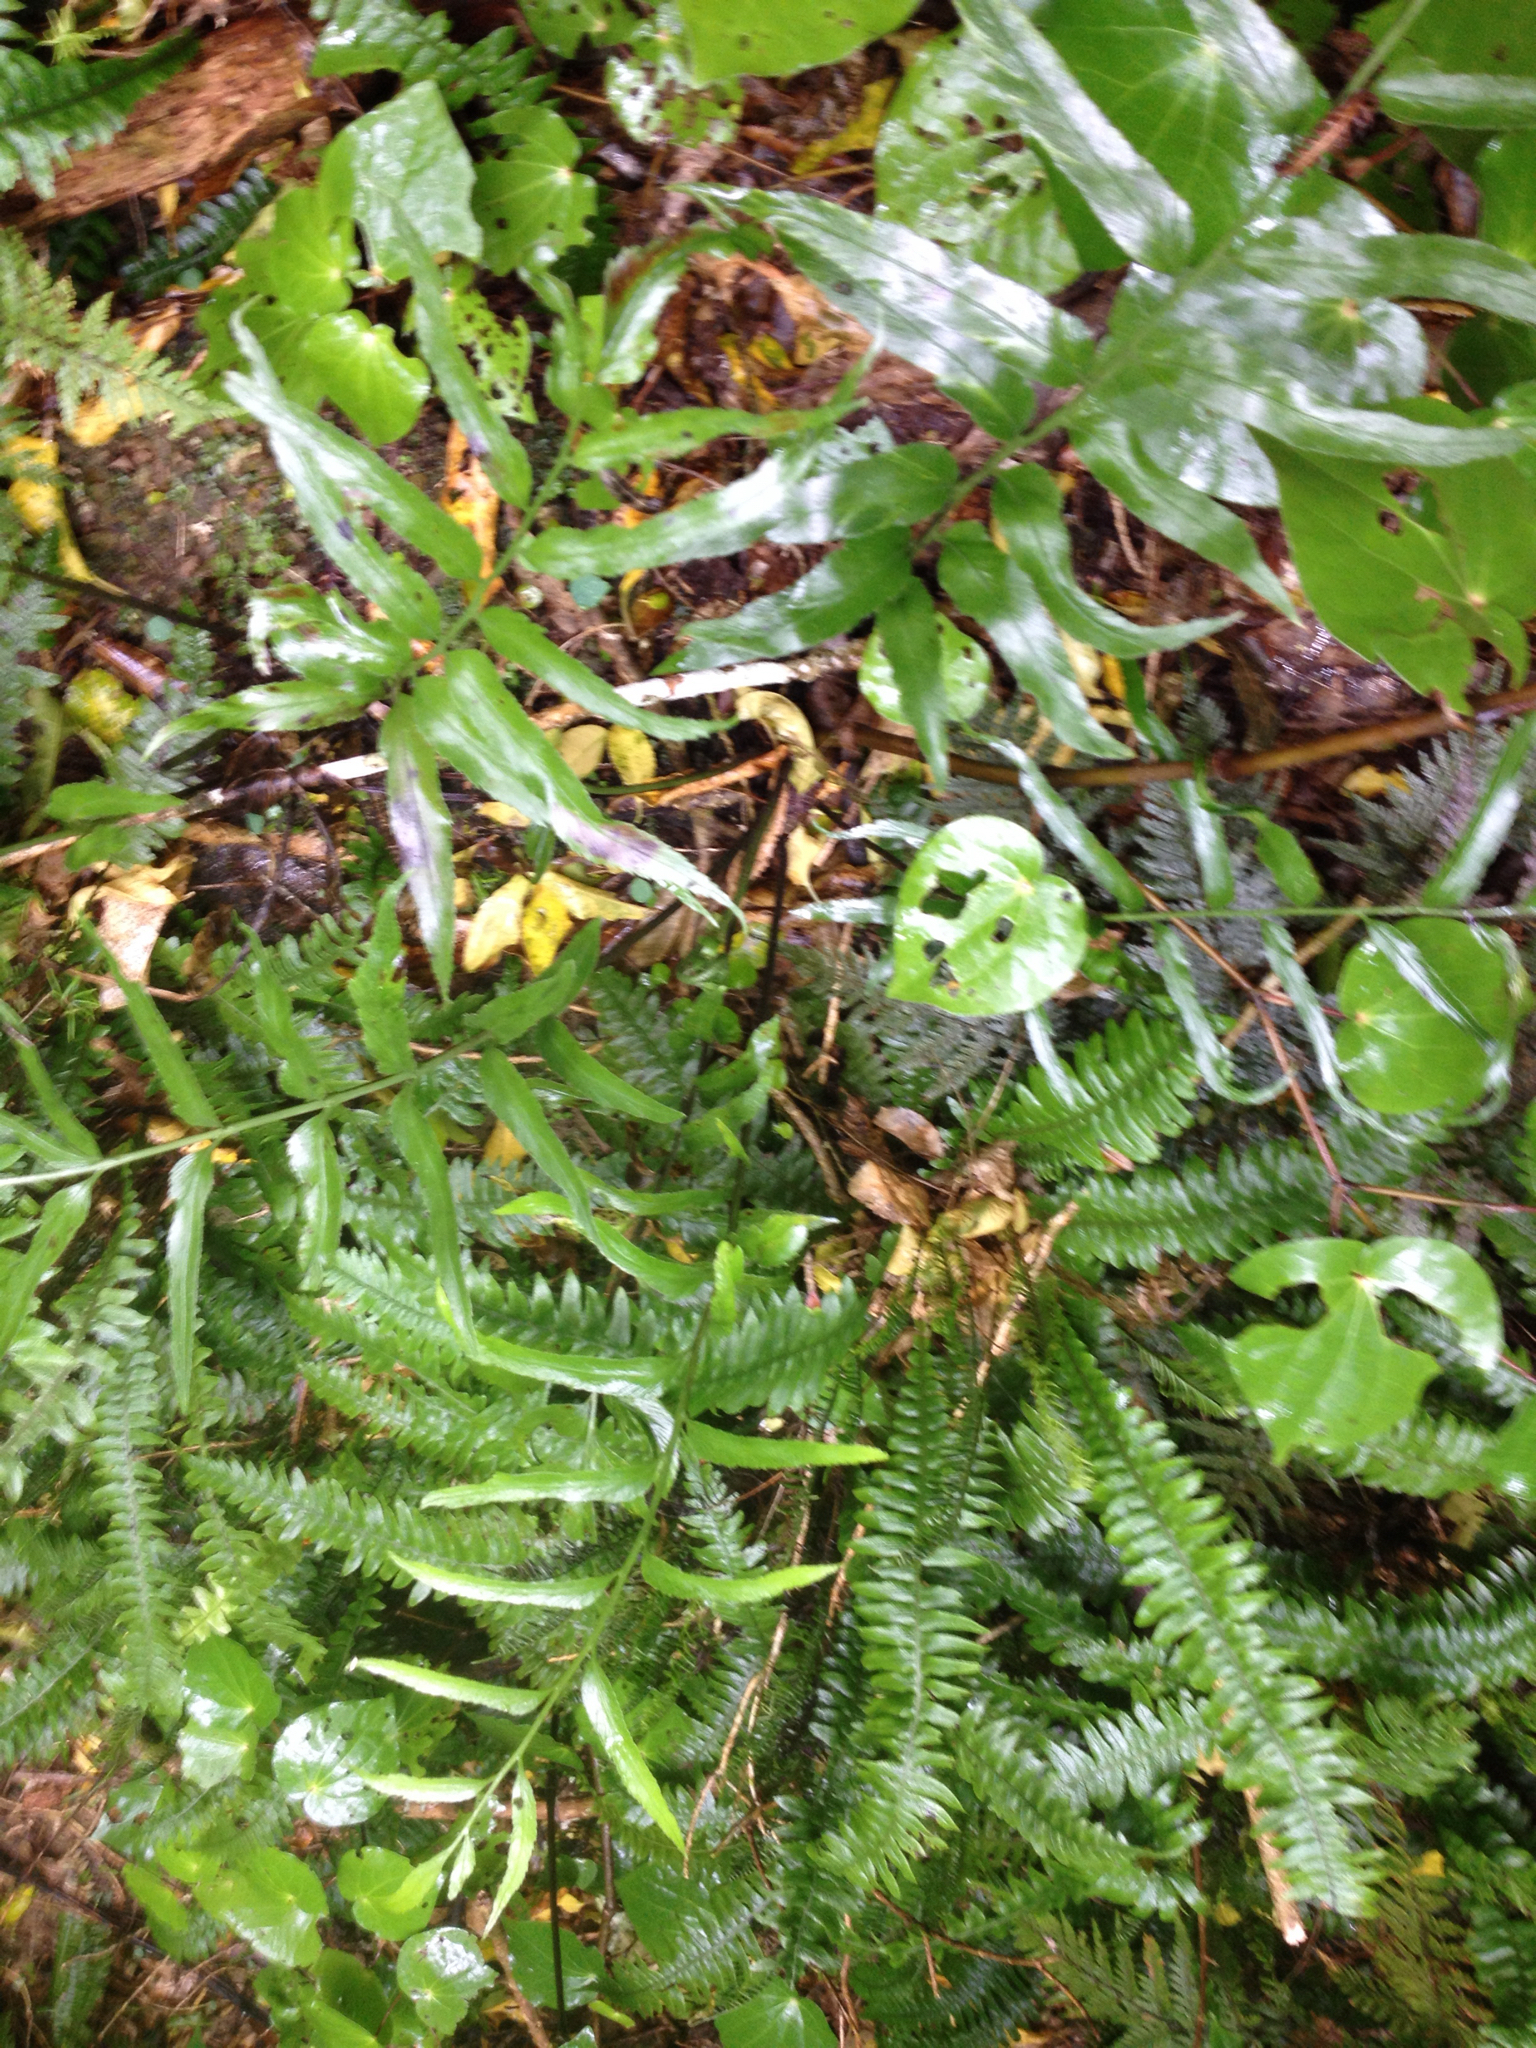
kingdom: Plantae
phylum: Tracheophyta
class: Polypodiopsida
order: Polypodiales
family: Aspleniaceae
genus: Asplenium
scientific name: Asplenium oblongifolium
